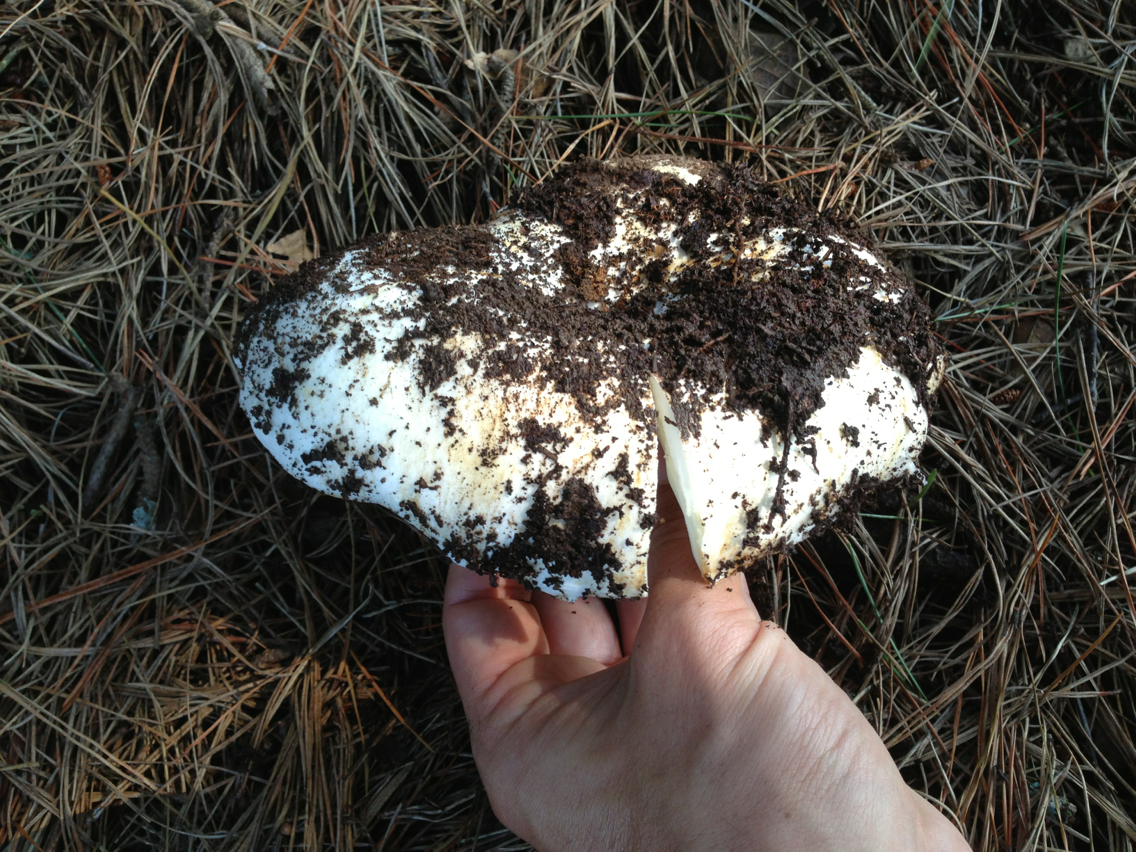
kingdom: Fungi
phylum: Basidiomycota
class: Agaricomycetes
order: Russulales
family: Russulaceae
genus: Russula
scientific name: Russula brevipes
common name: Short-stemmed russula
